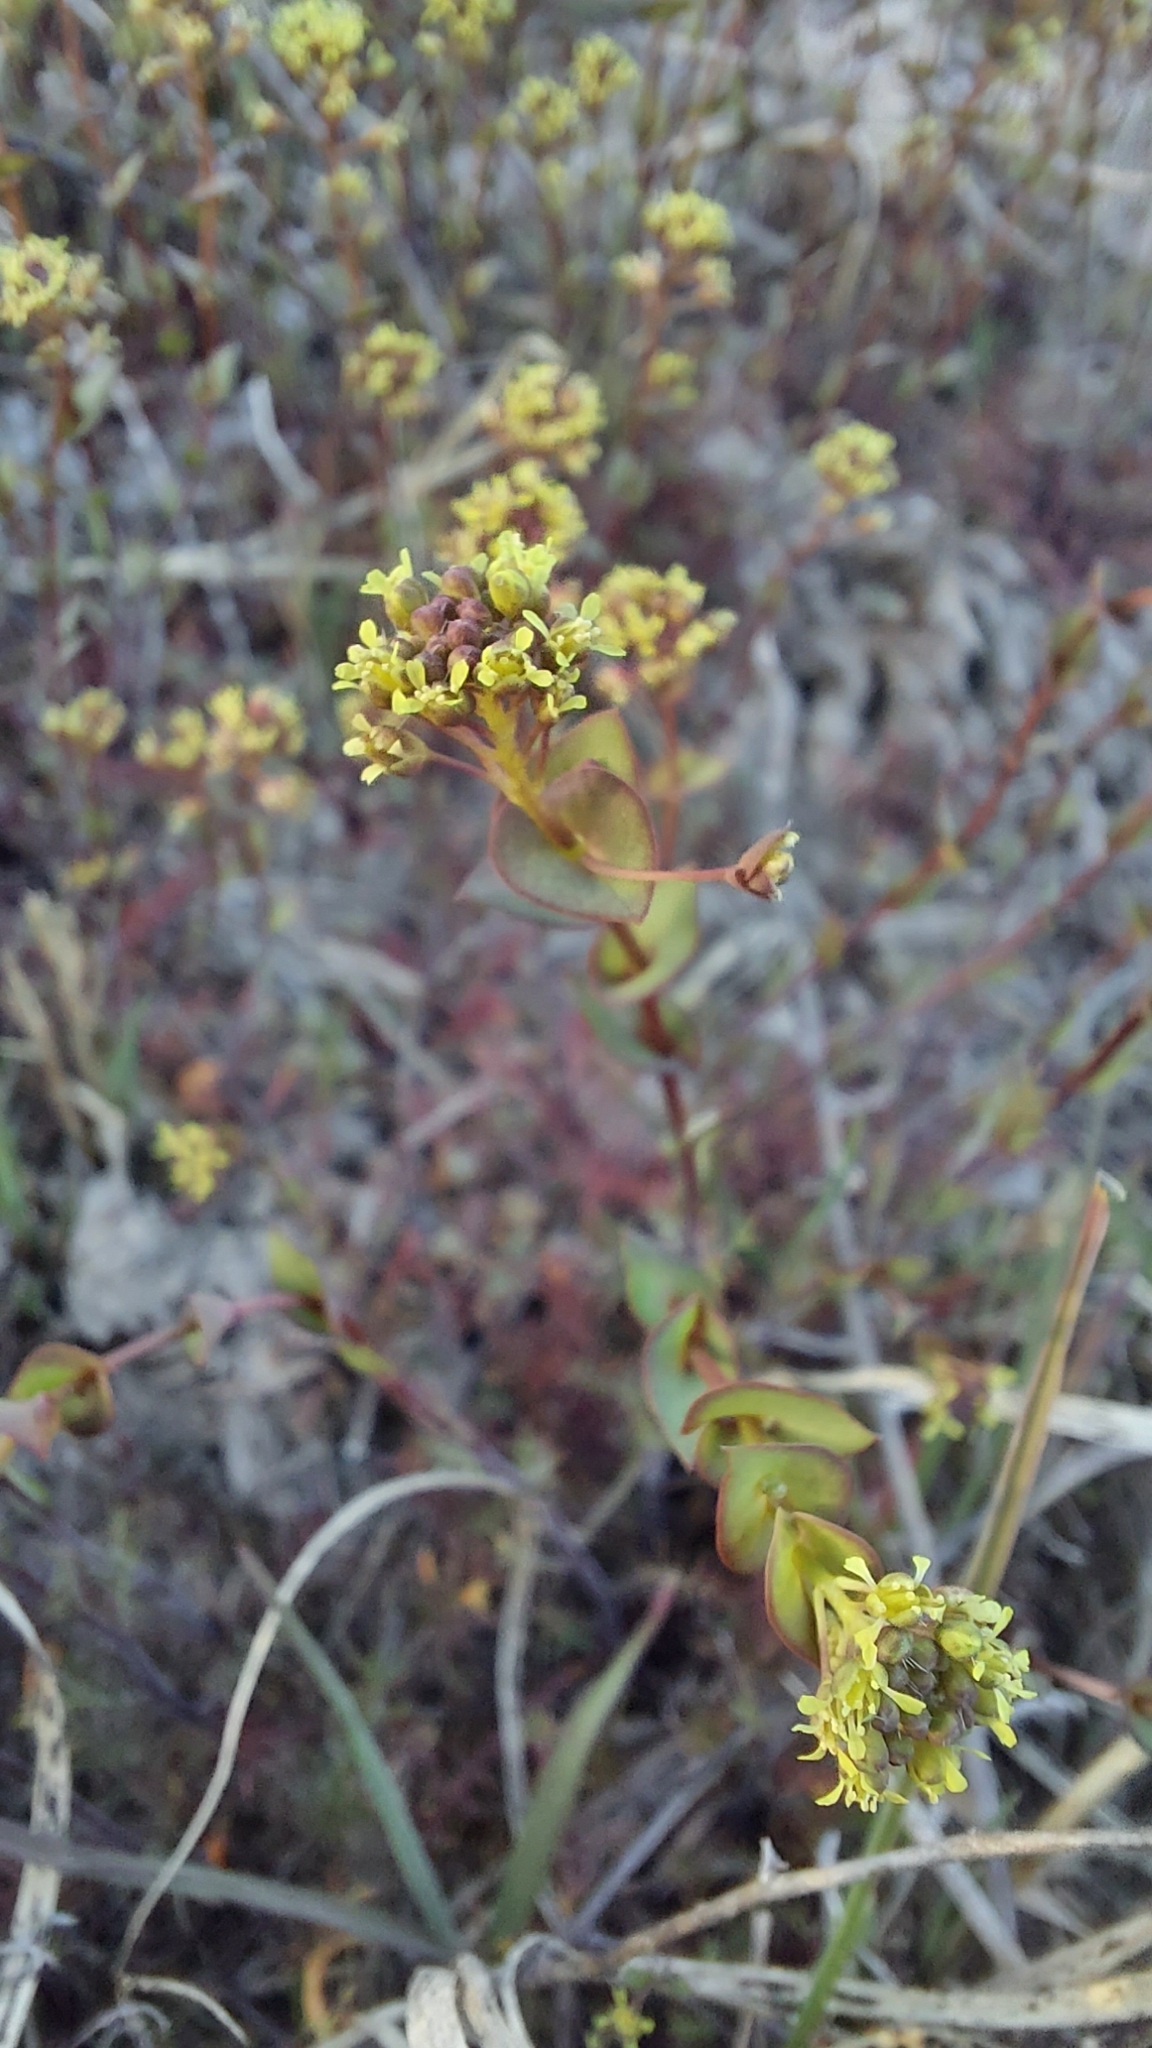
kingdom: Plantae
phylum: Tracheophyta
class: Magnoliopsida
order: Brassicales
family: Brassicaceae
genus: Lepidium
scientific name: Lepidium perfoliatum
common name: Perfoliate pepperwort
